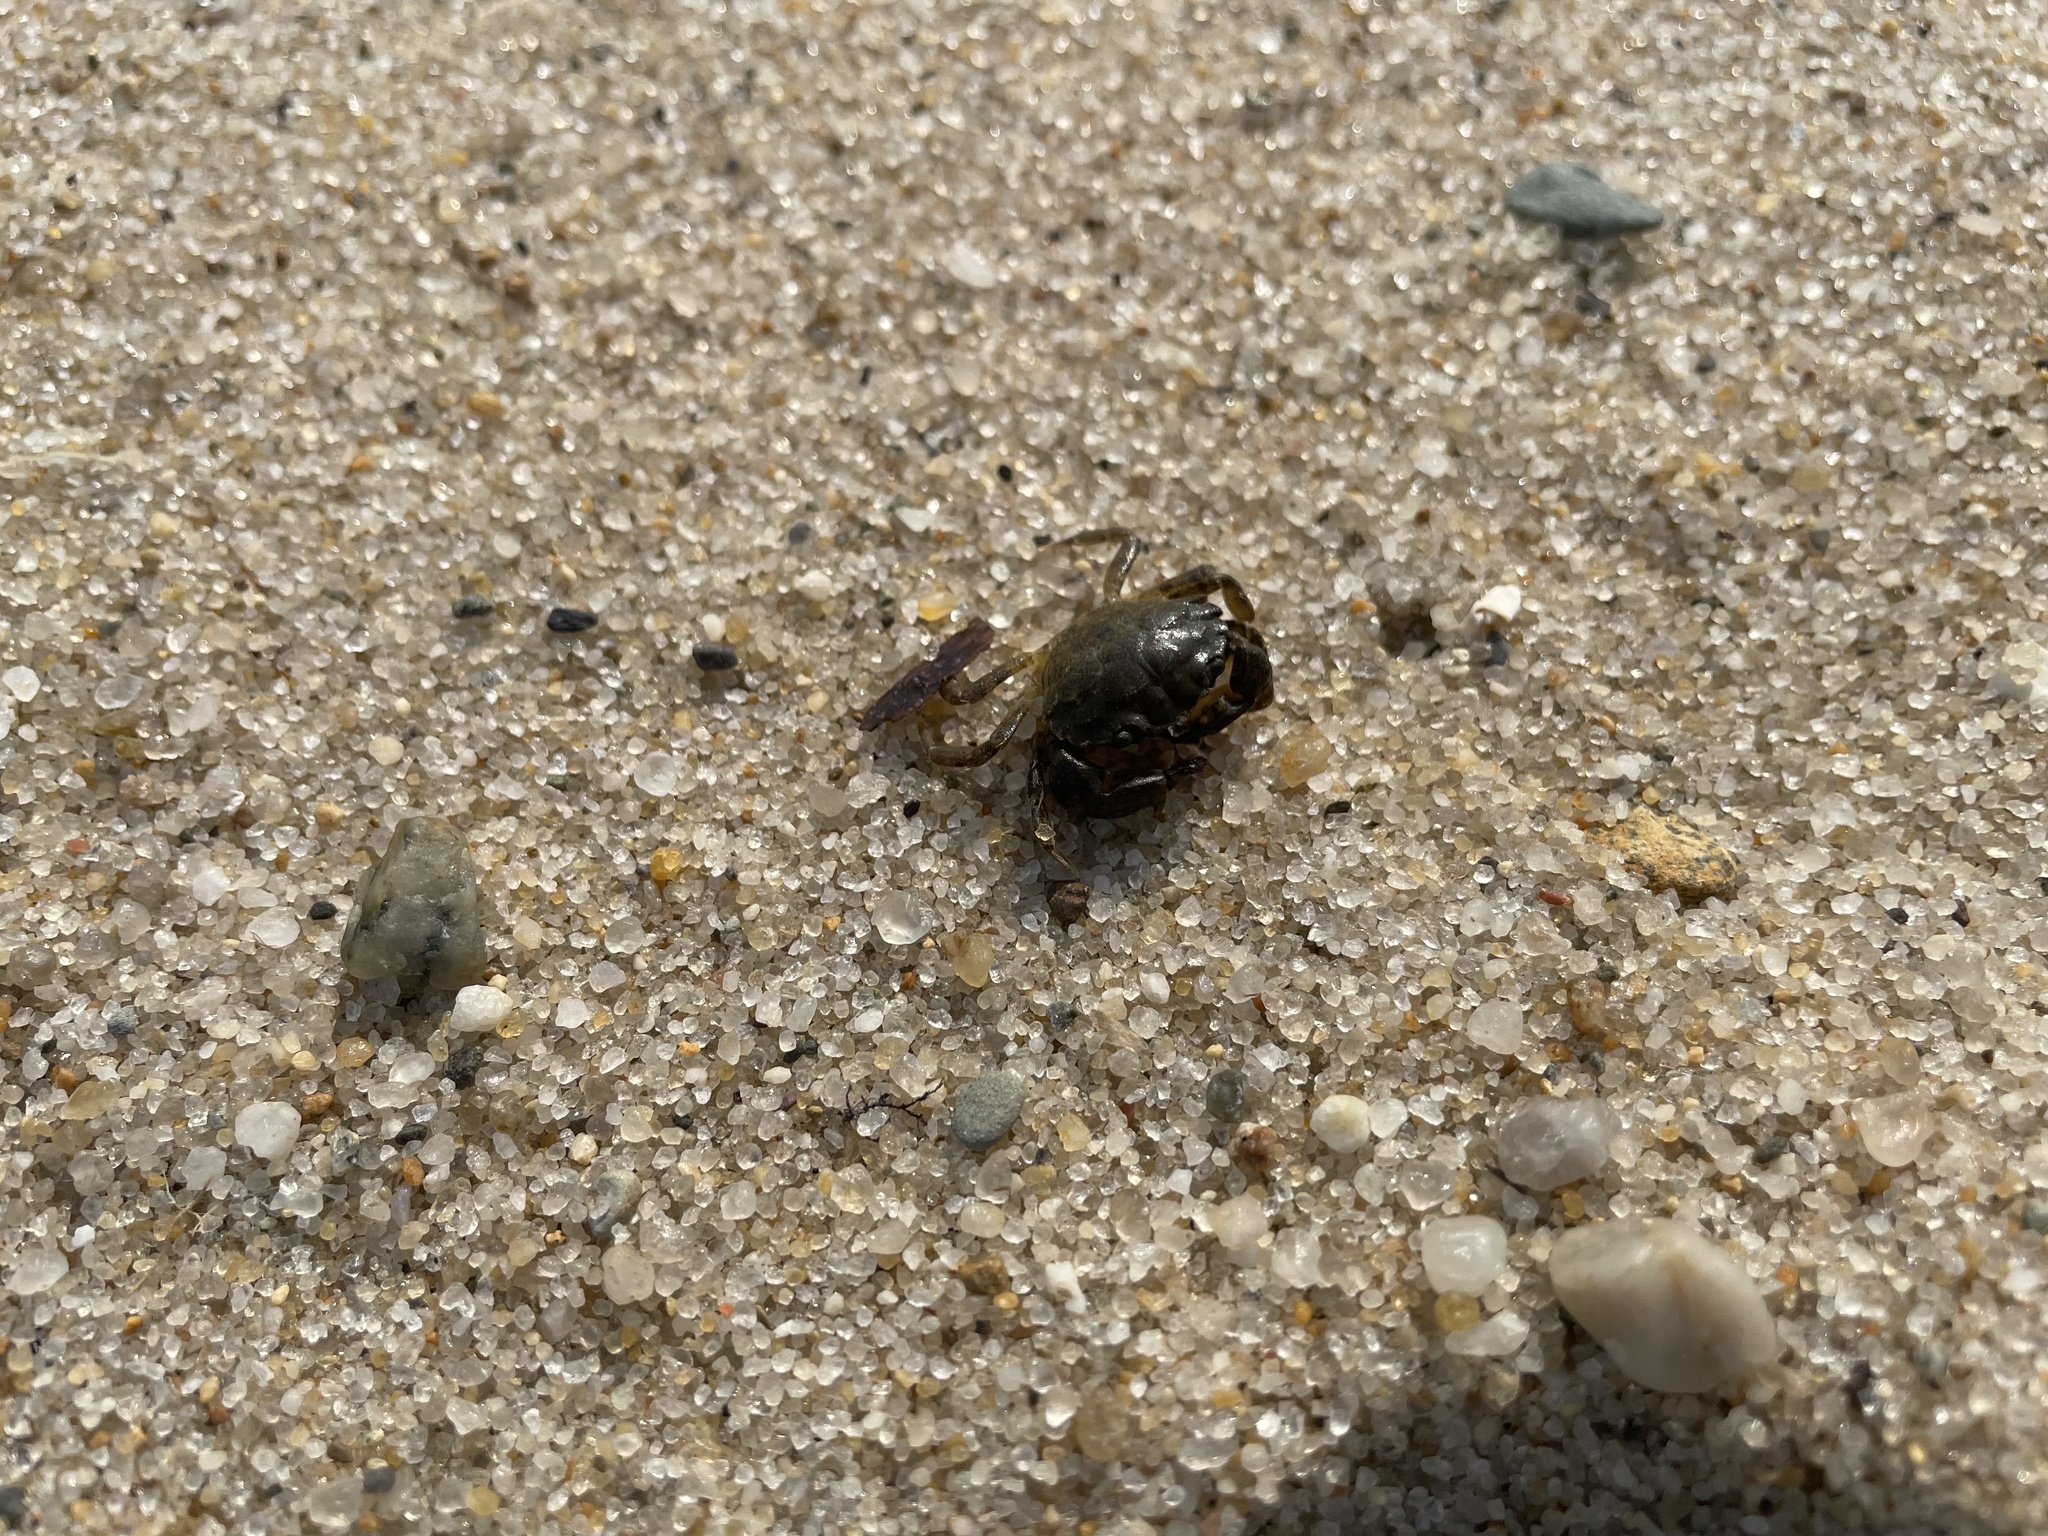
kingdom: Animalia
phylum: Arthropoda
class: Malacostraca
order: Decapoda
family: Carcinidae
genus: Carcinus
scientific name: Carcinus maenas
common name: European green crab
